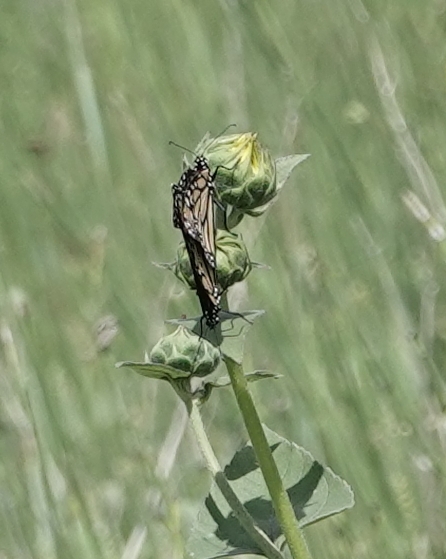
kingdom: Animalia
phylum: Arthropoda
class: Insecta
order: Lepidoptera
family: Nymphalidae
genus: Danaus
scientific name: Danaus plexippus
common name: Monarch
